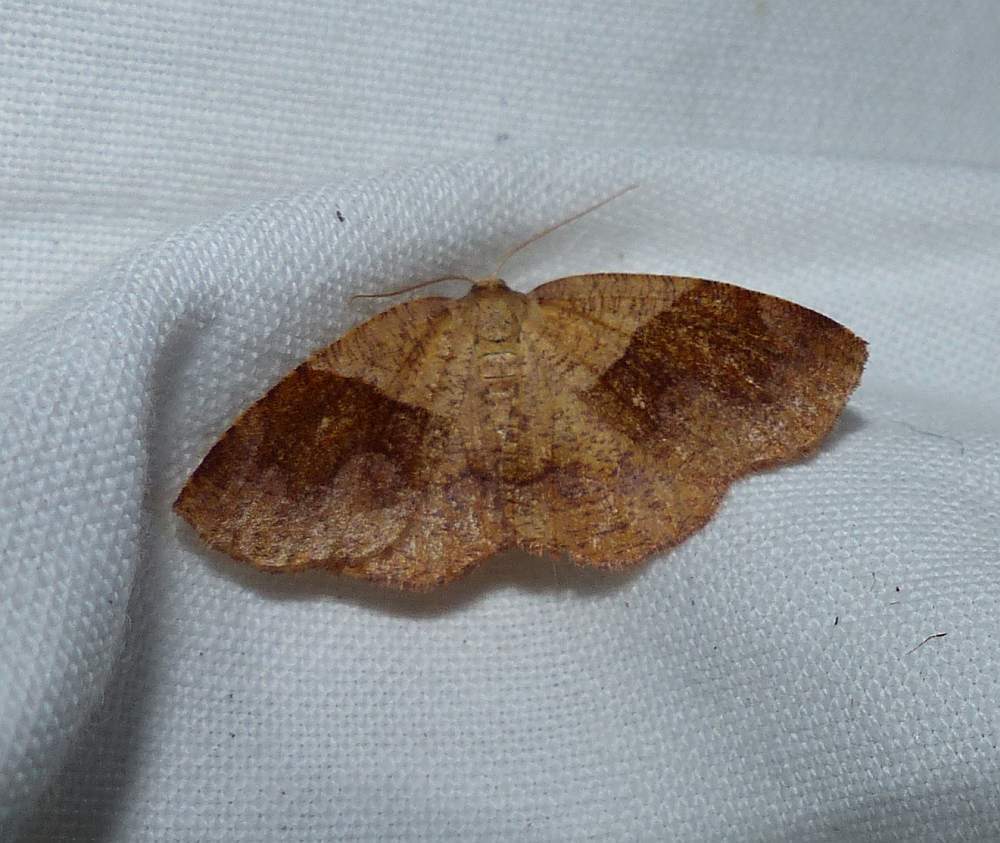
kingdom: Animalia
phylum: Arthropoda
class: Insecta
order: Lepidoptera
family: Geometridae
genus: Plagodis
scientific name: Plagodis pulveraria
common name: Barred umber
